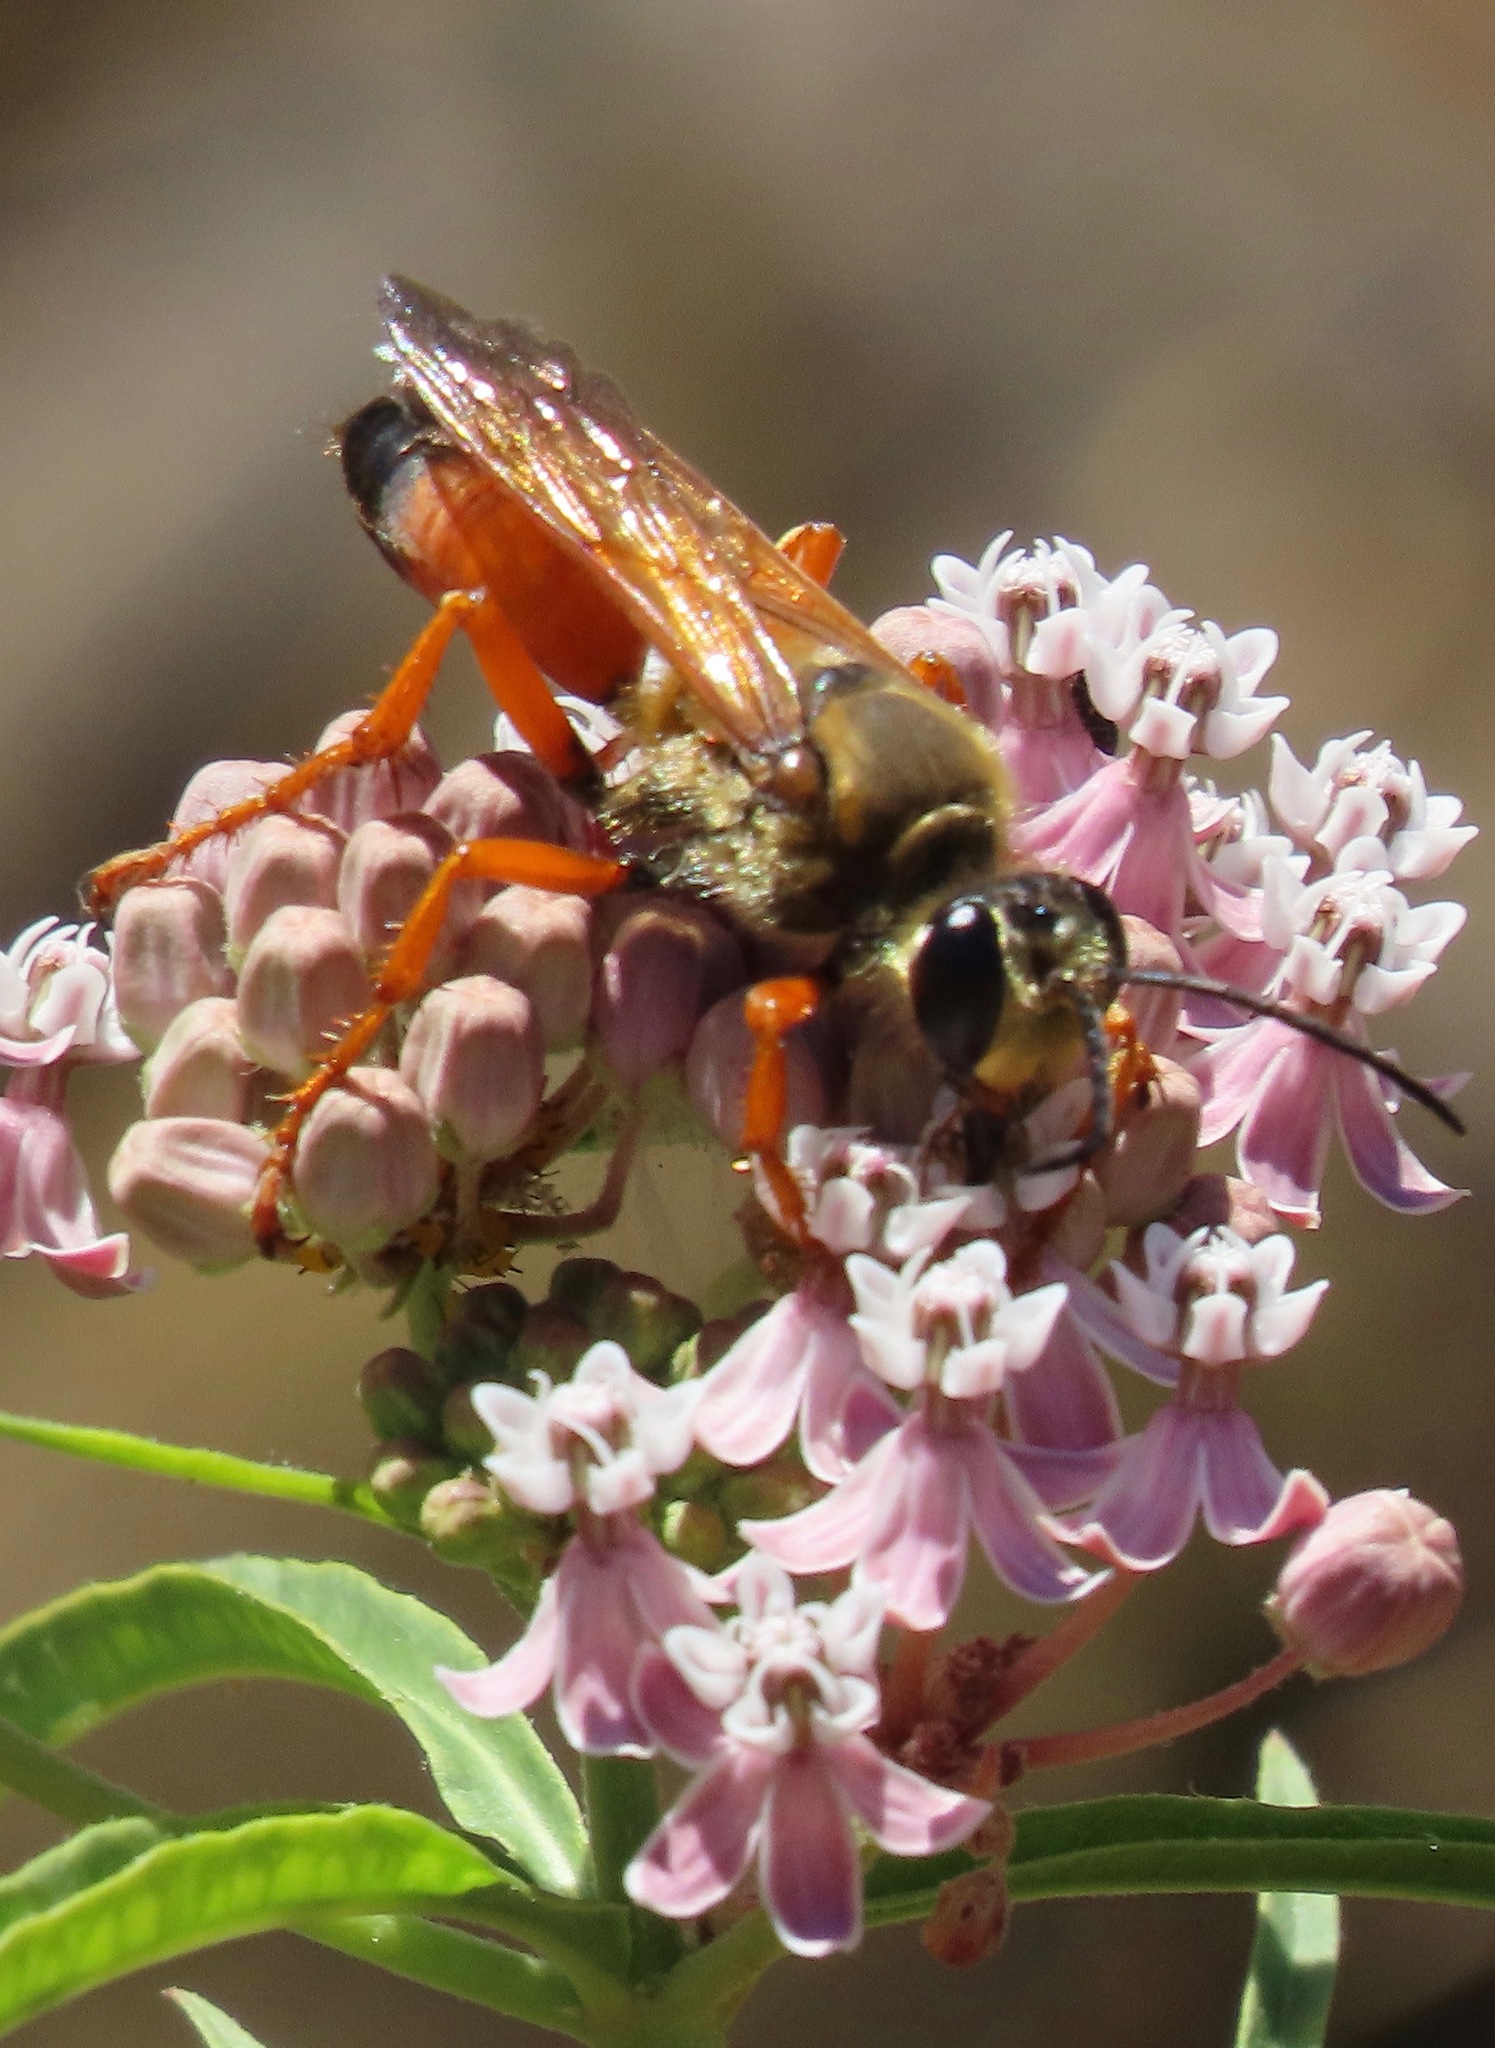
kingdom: Animalia
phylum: Arthropoda
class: Insecta
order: Hymenoptera
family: Sphecidae
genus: Sphex
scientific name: Sphex ichneumoneus
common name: Great golden digger wasp
